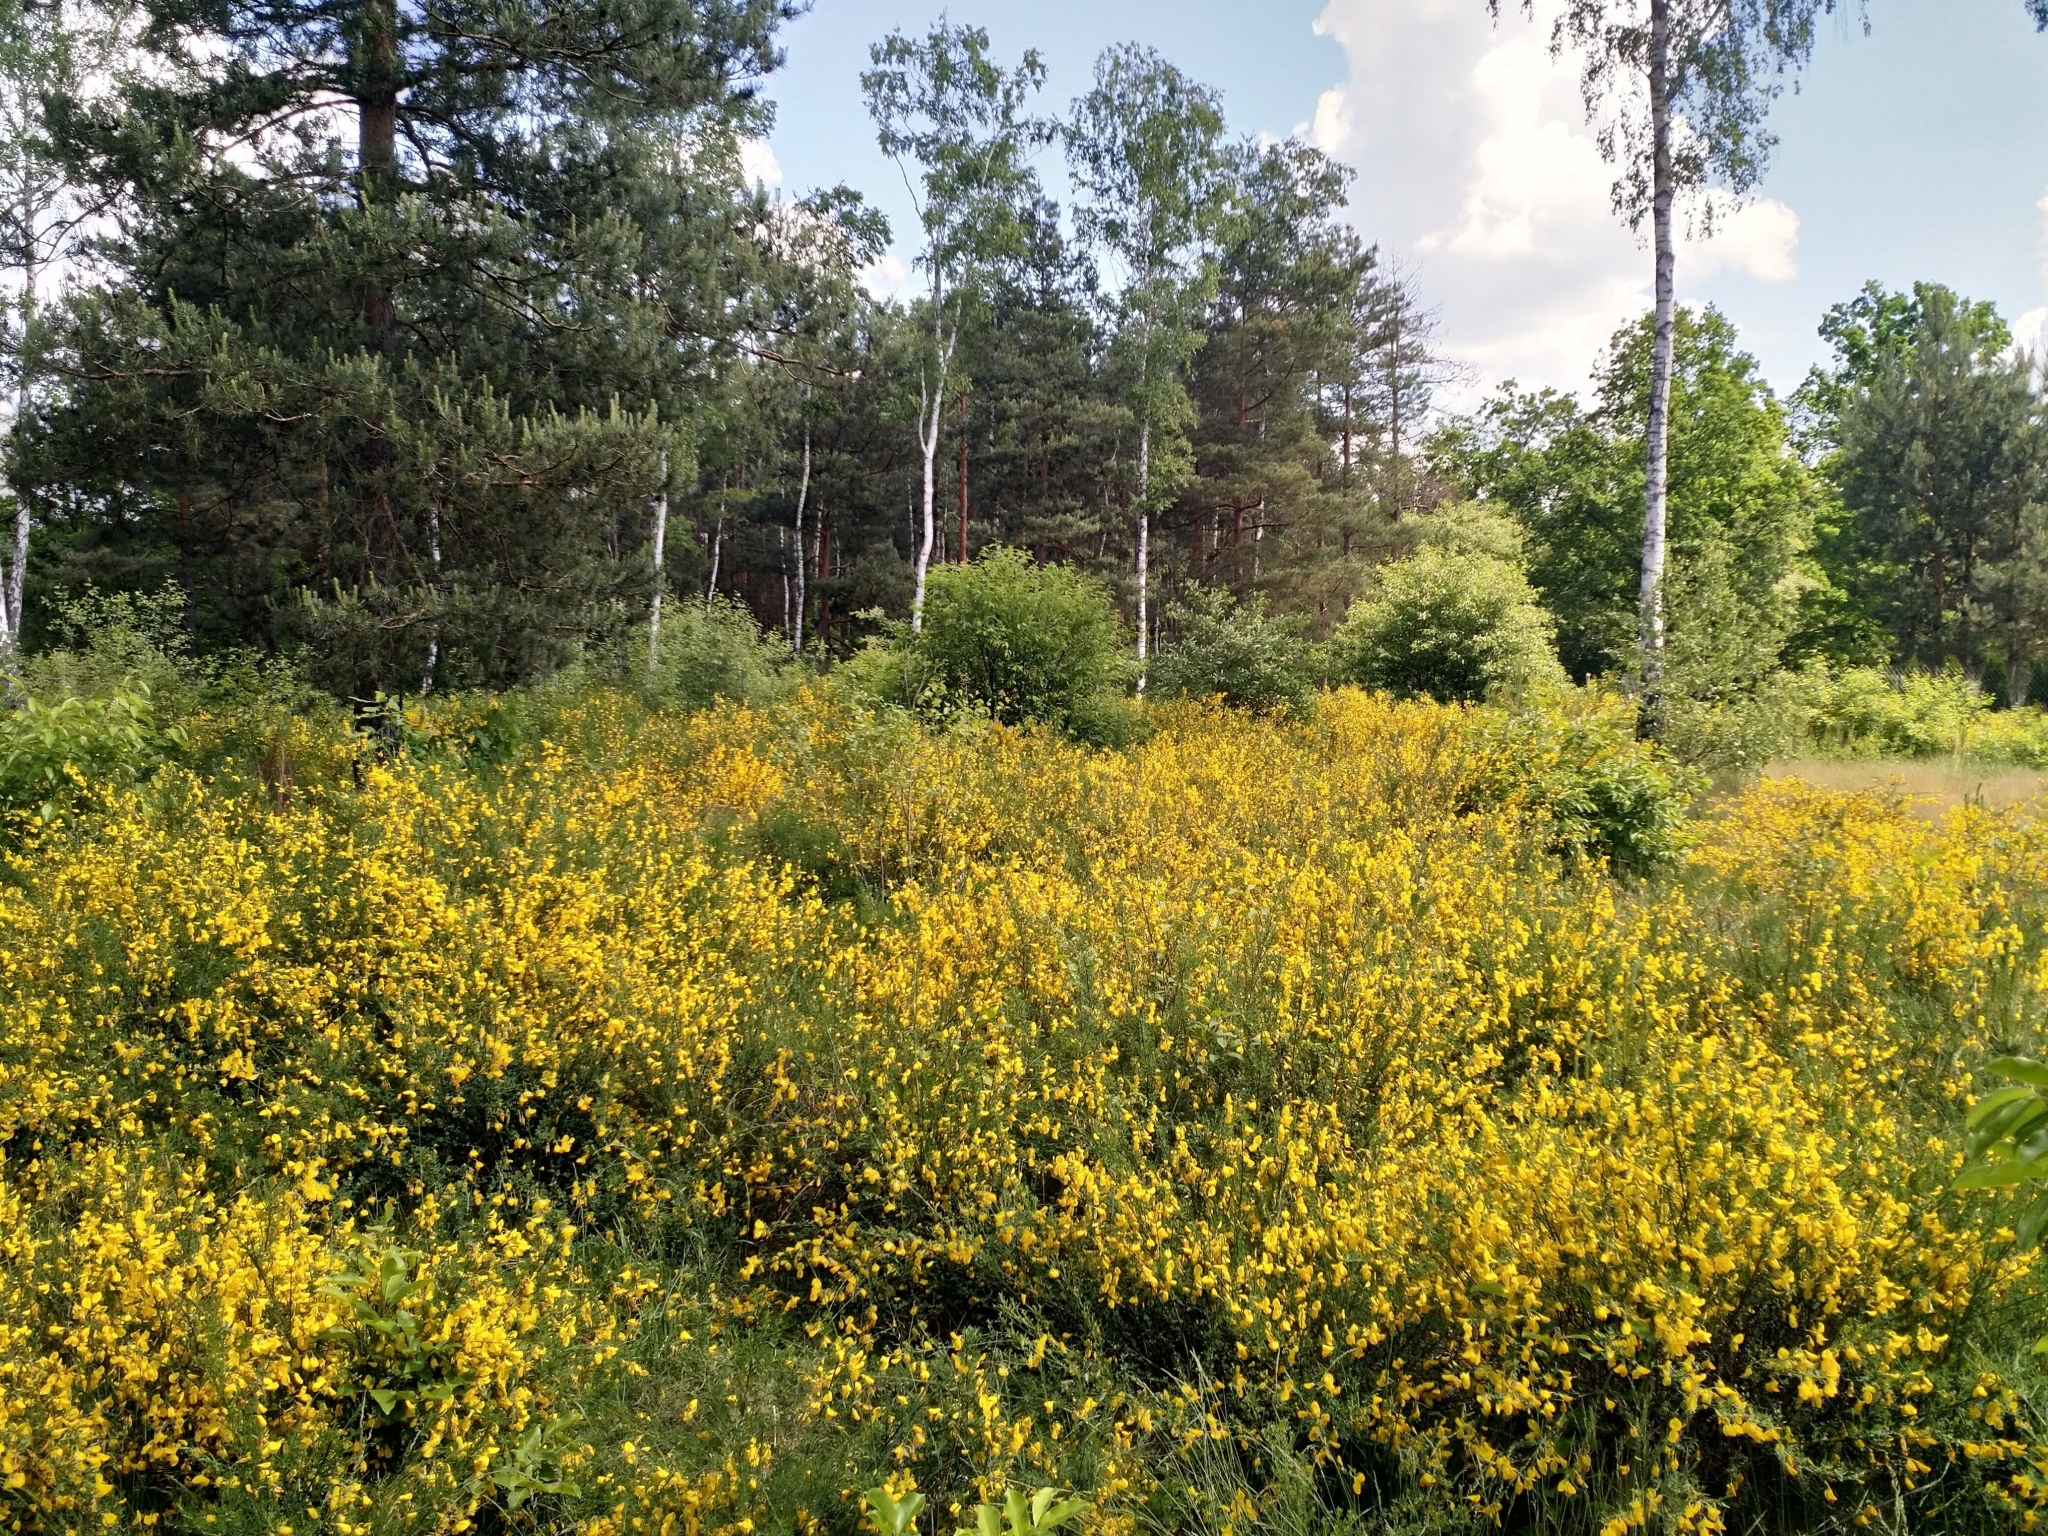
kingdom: Plantae
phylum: Tracheophyta
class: Magnoliopsida
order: Fabales
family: Fabaceae
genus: Cytisus
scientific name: Cytisus scoparius
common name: Scotch broom
